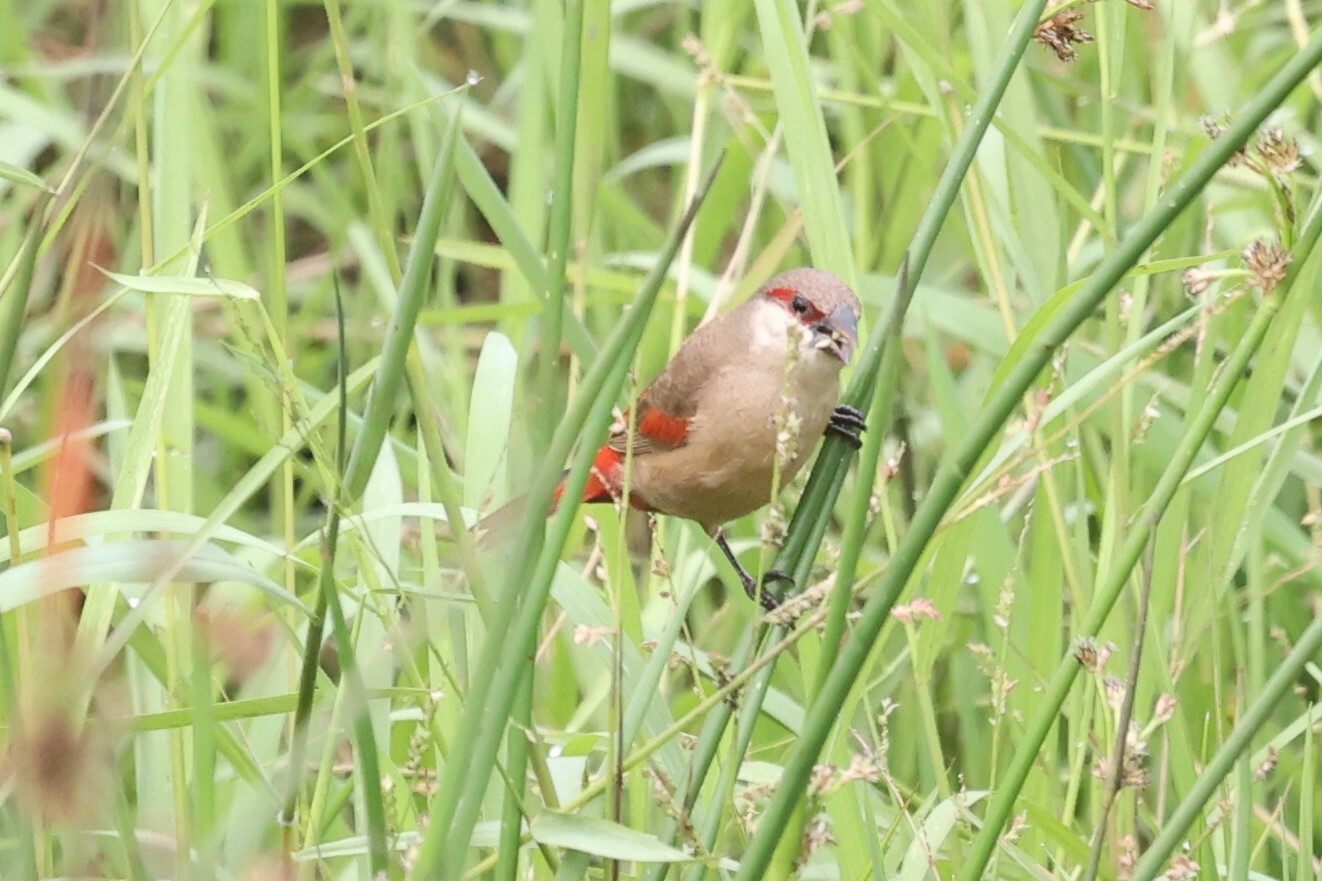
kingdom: Animalia
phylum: Chordata
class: Aves
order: Passeriformes
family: Estrildidae
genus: Estrilda
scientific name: Estrilda rhodopyga
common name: Crimson-rumped waxbill
